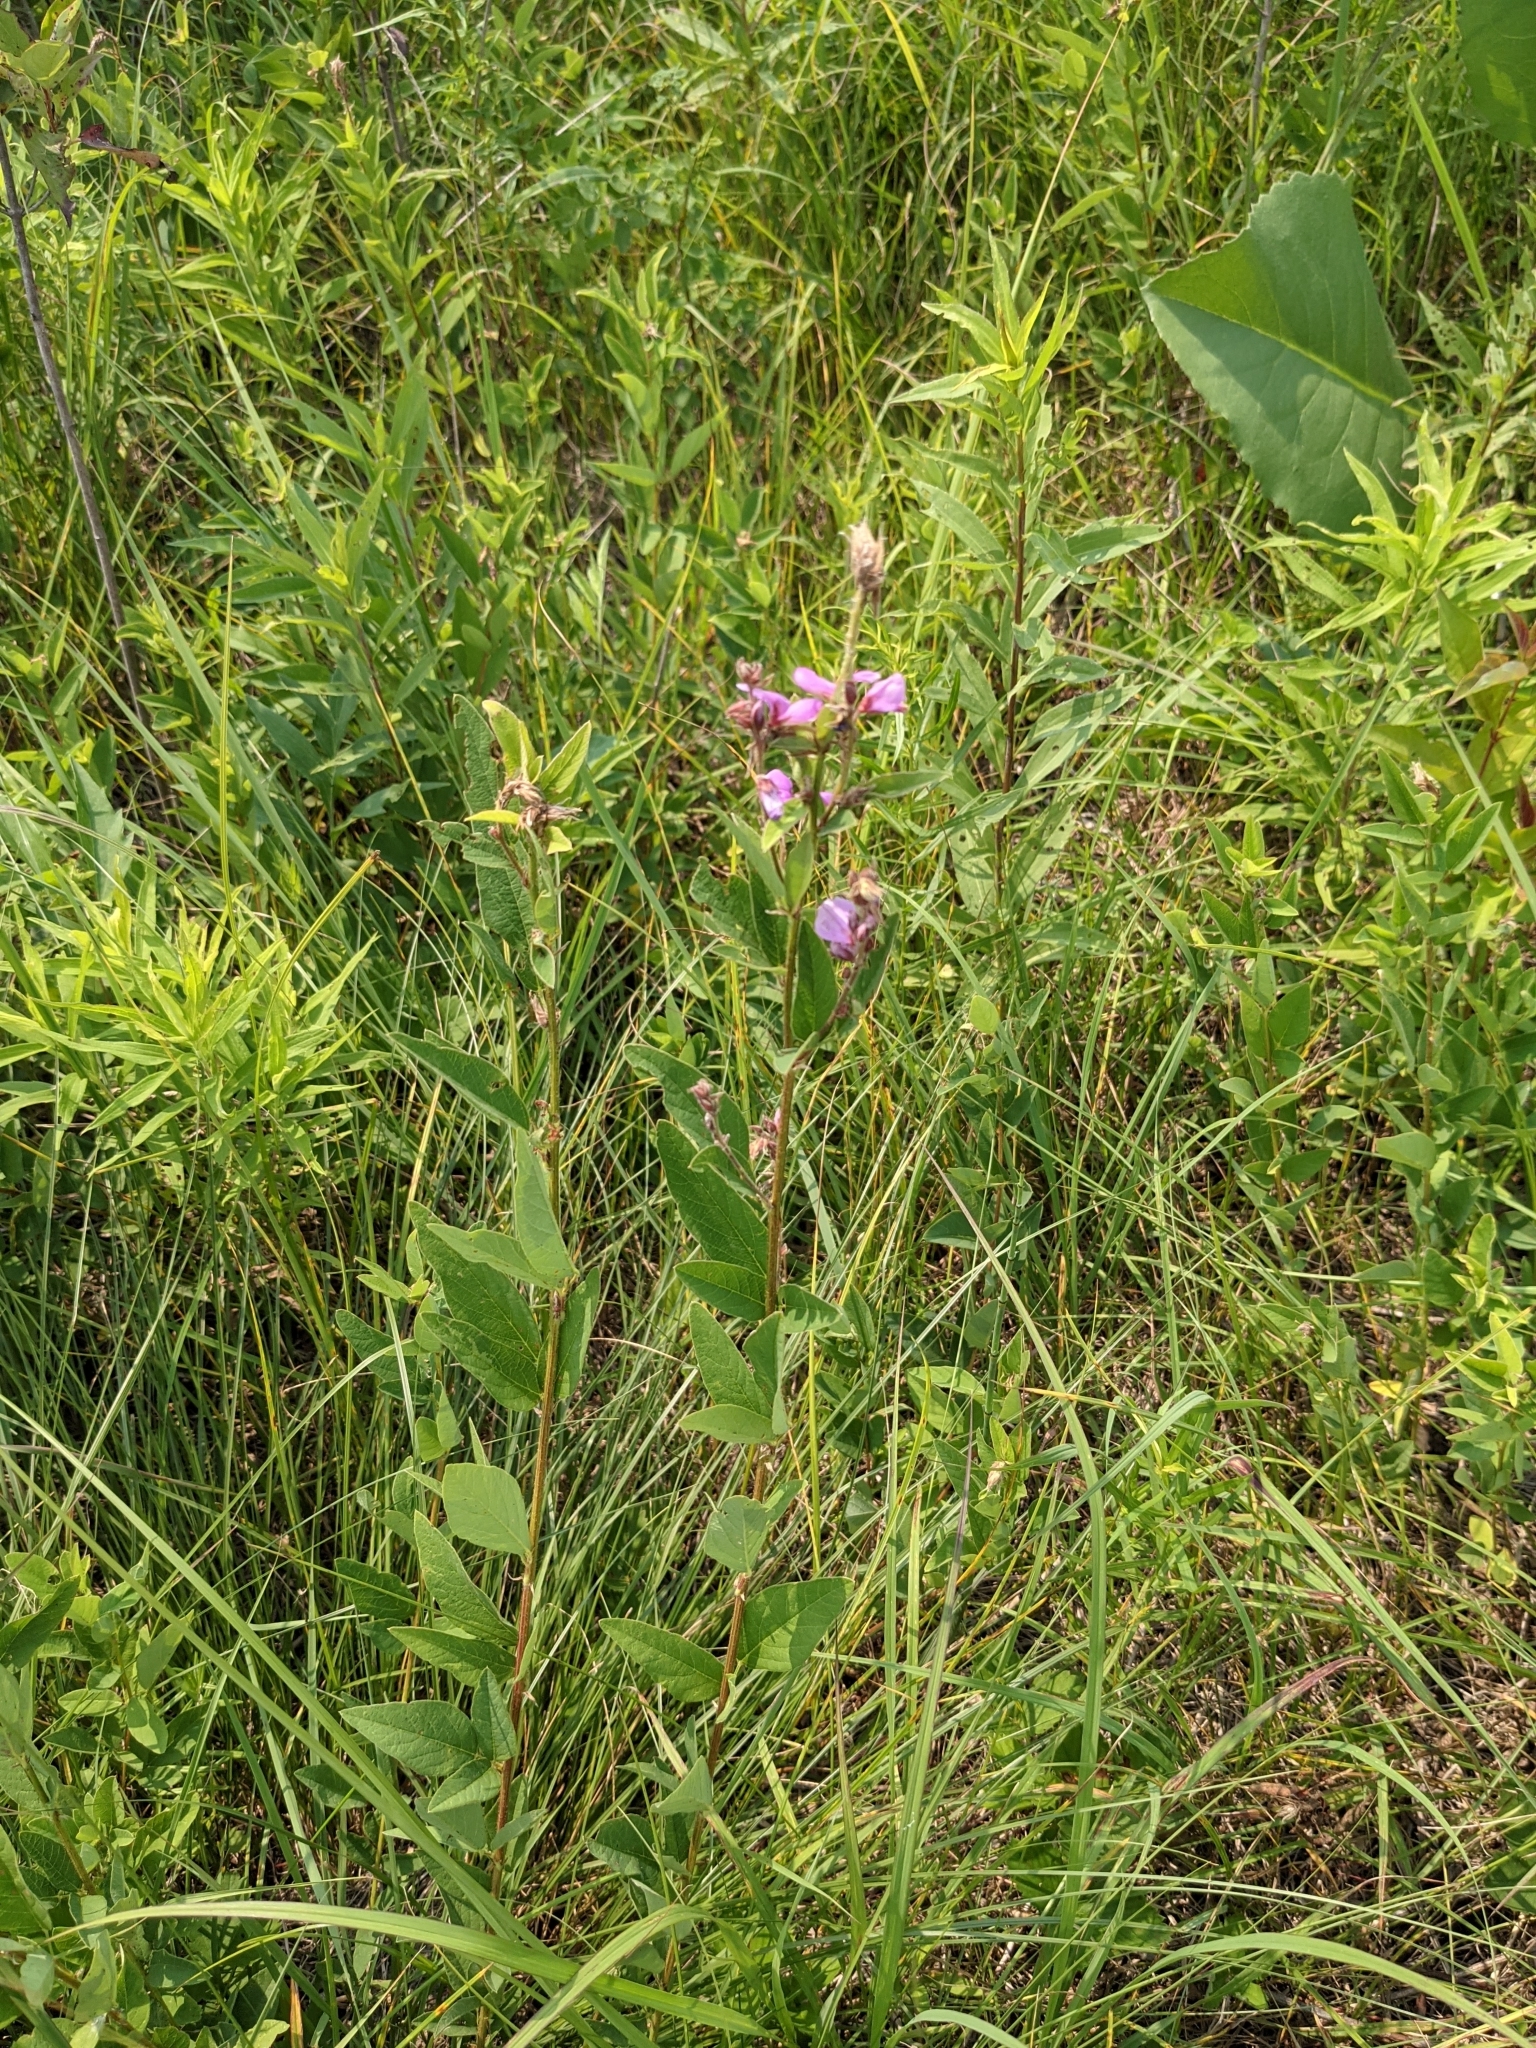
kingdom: Plantae
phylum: Tracheophyta
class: Magnoliopsida
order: Fabales
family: Fabaceae
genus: Desmodium
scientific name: Desmodium canadense
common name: Canada tick-trefoil
